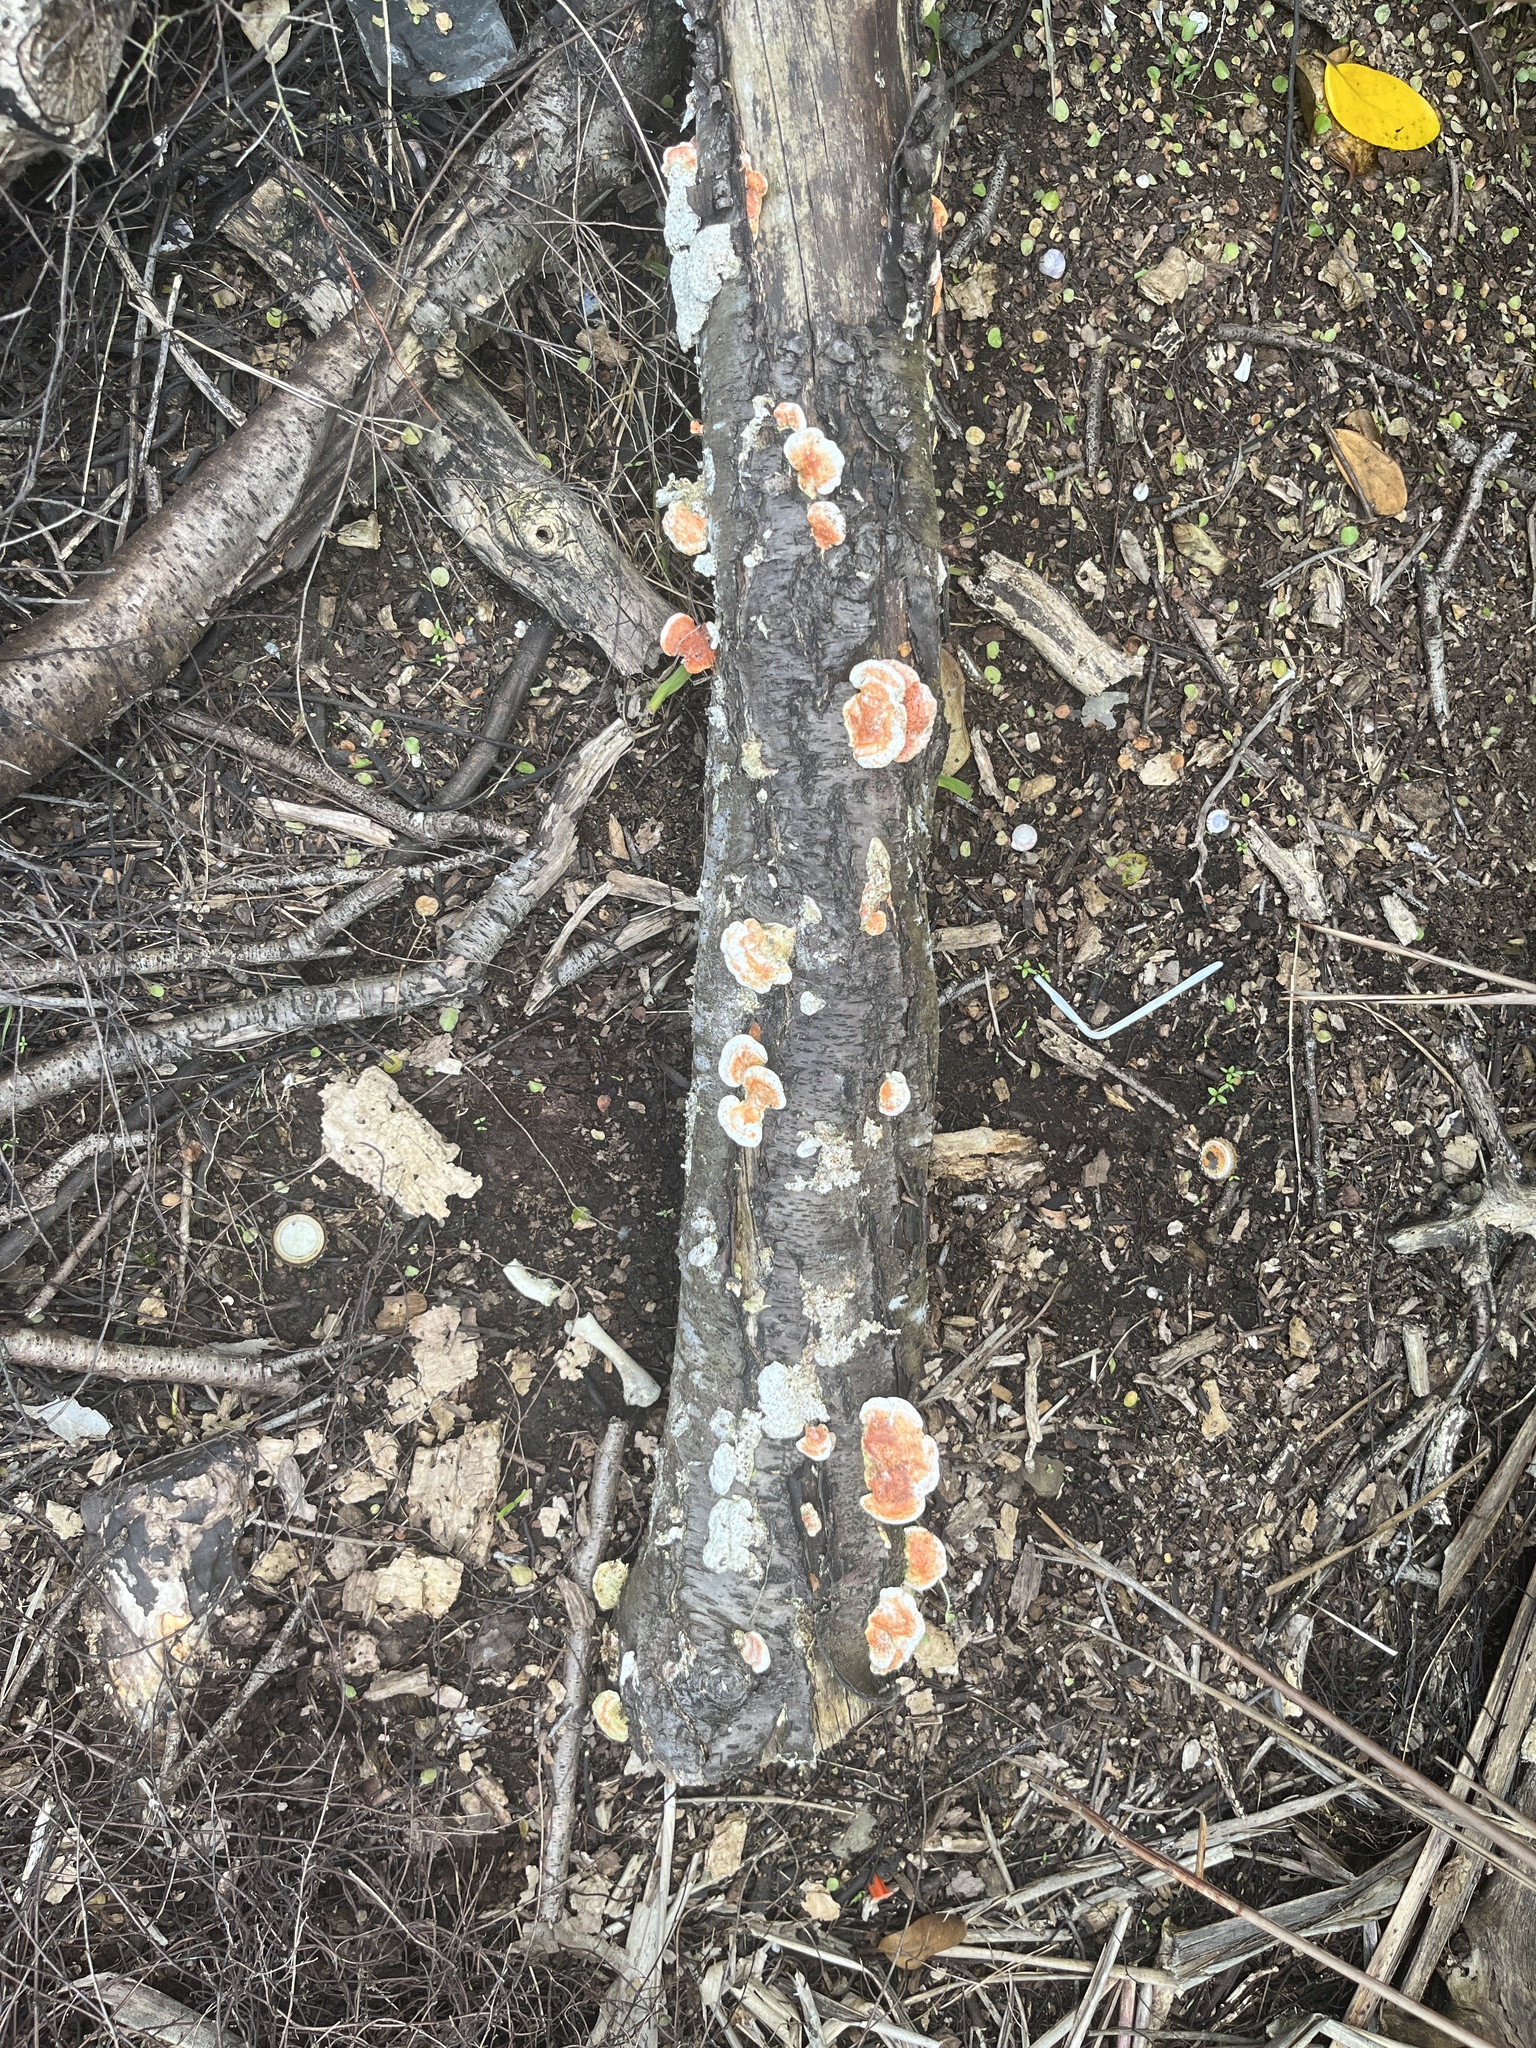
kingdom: Fungi
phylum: Basidiomycota
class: Agaricomycetes
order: Polyporales
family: Polyporaceae
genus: Trametes
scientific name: Trametes coccinea
